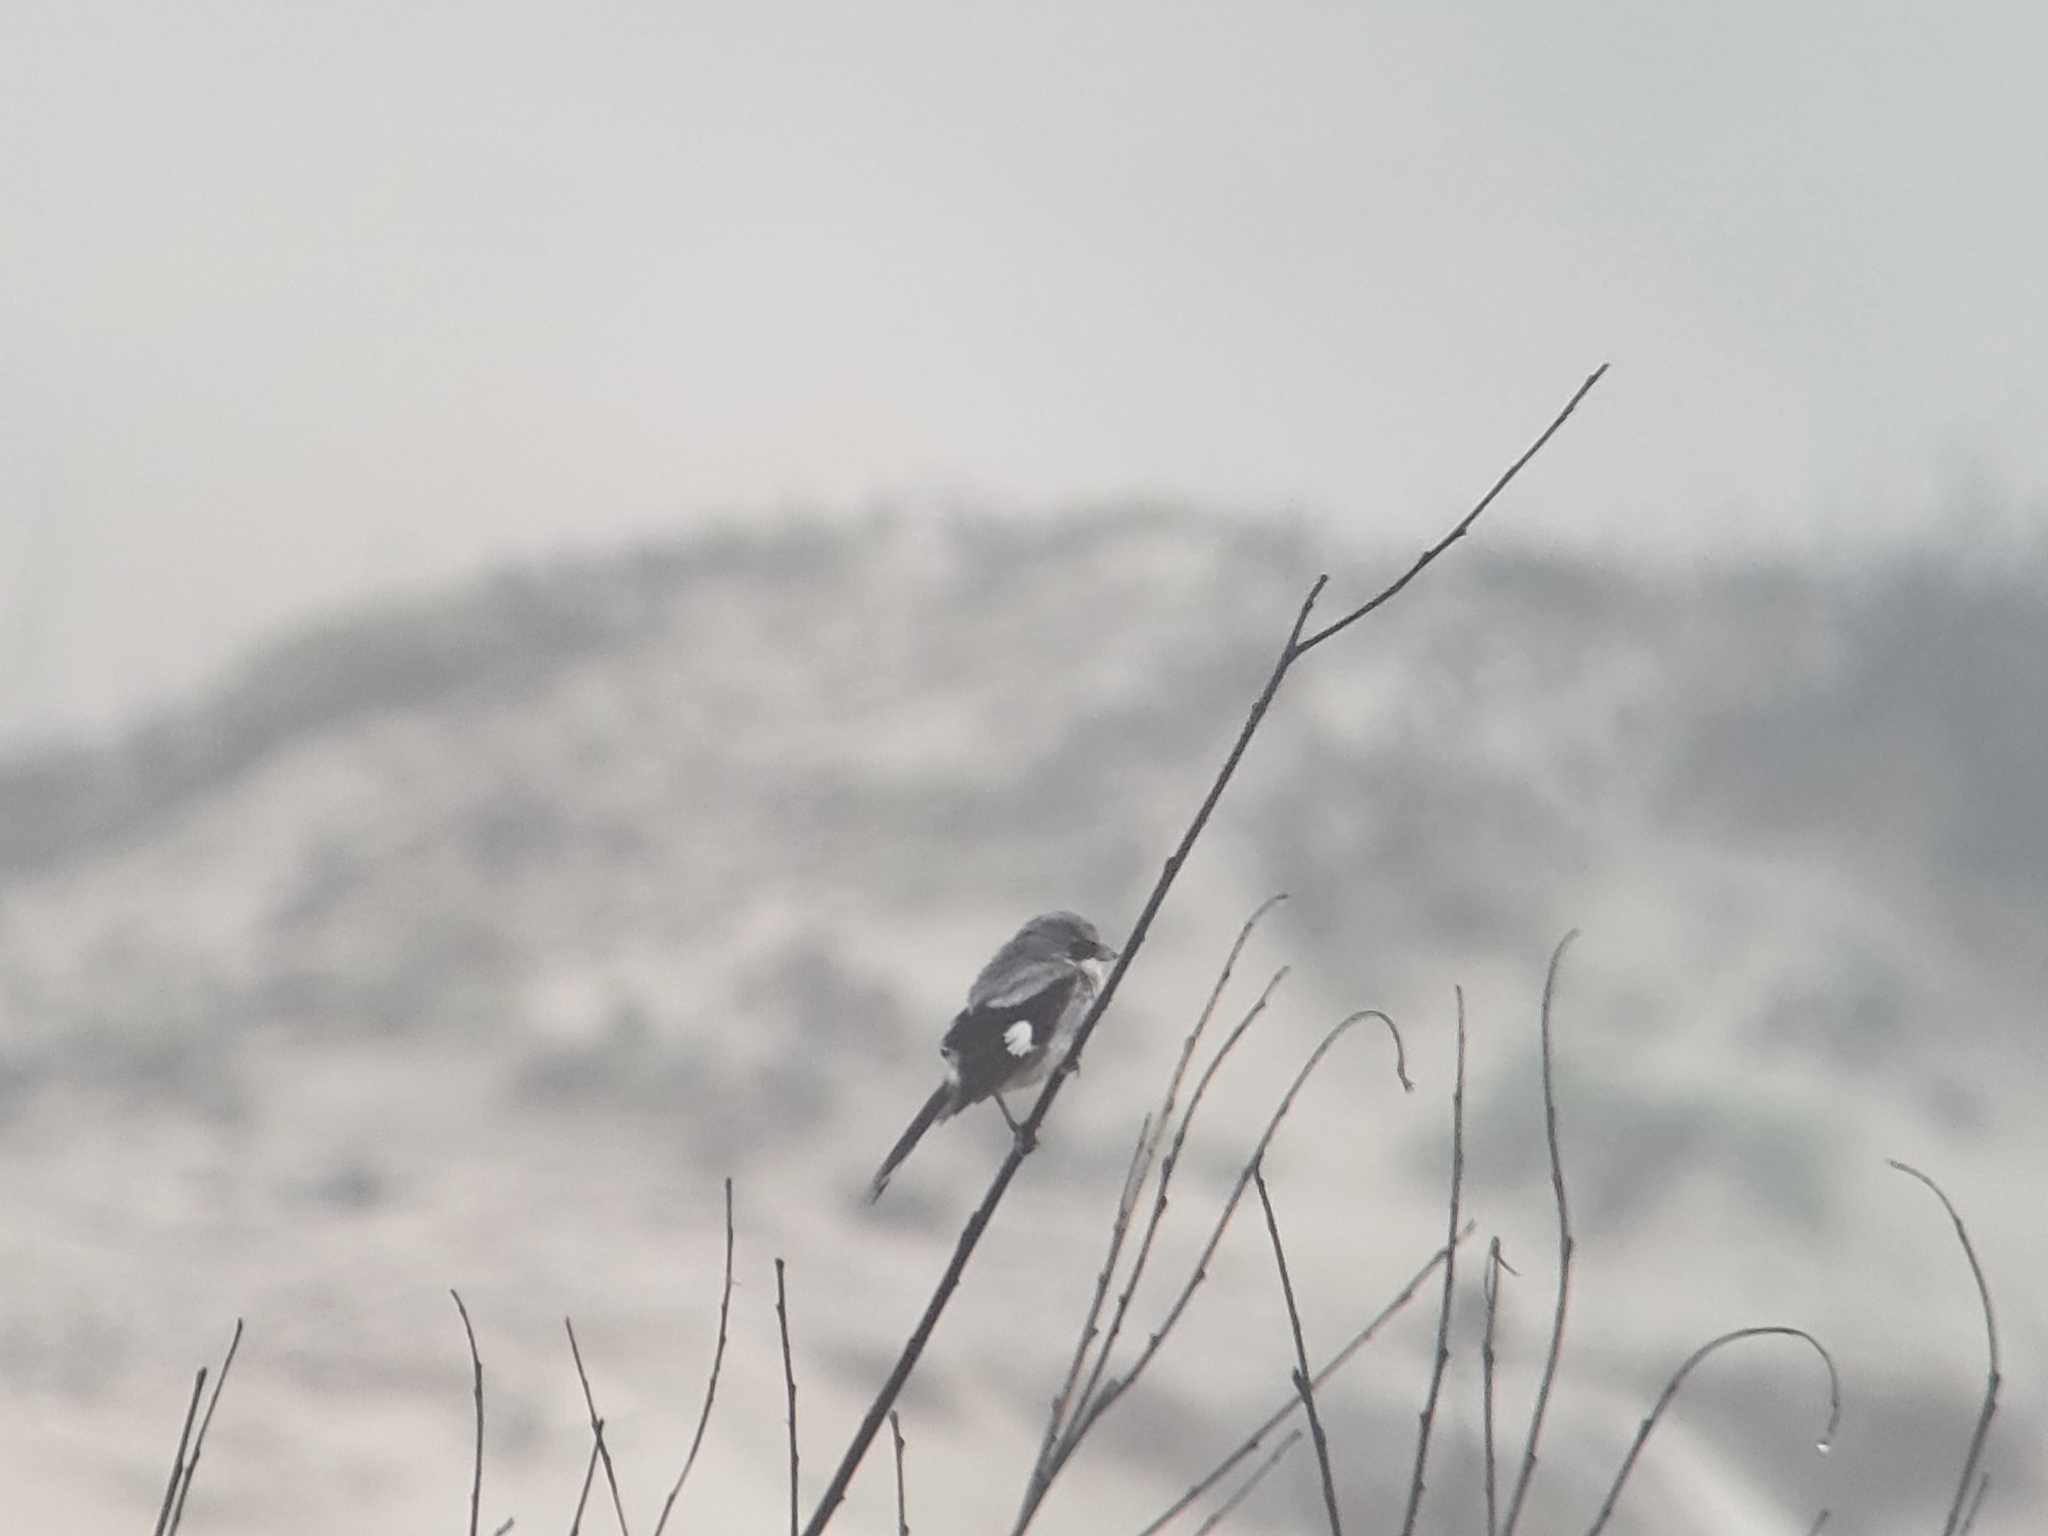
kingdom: Animalia
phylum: Chordata
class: Aves
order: Passeriformes
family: Laniidae
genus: Lanius
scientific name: Lanius ludovicianus
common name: Loggerhead shrike
